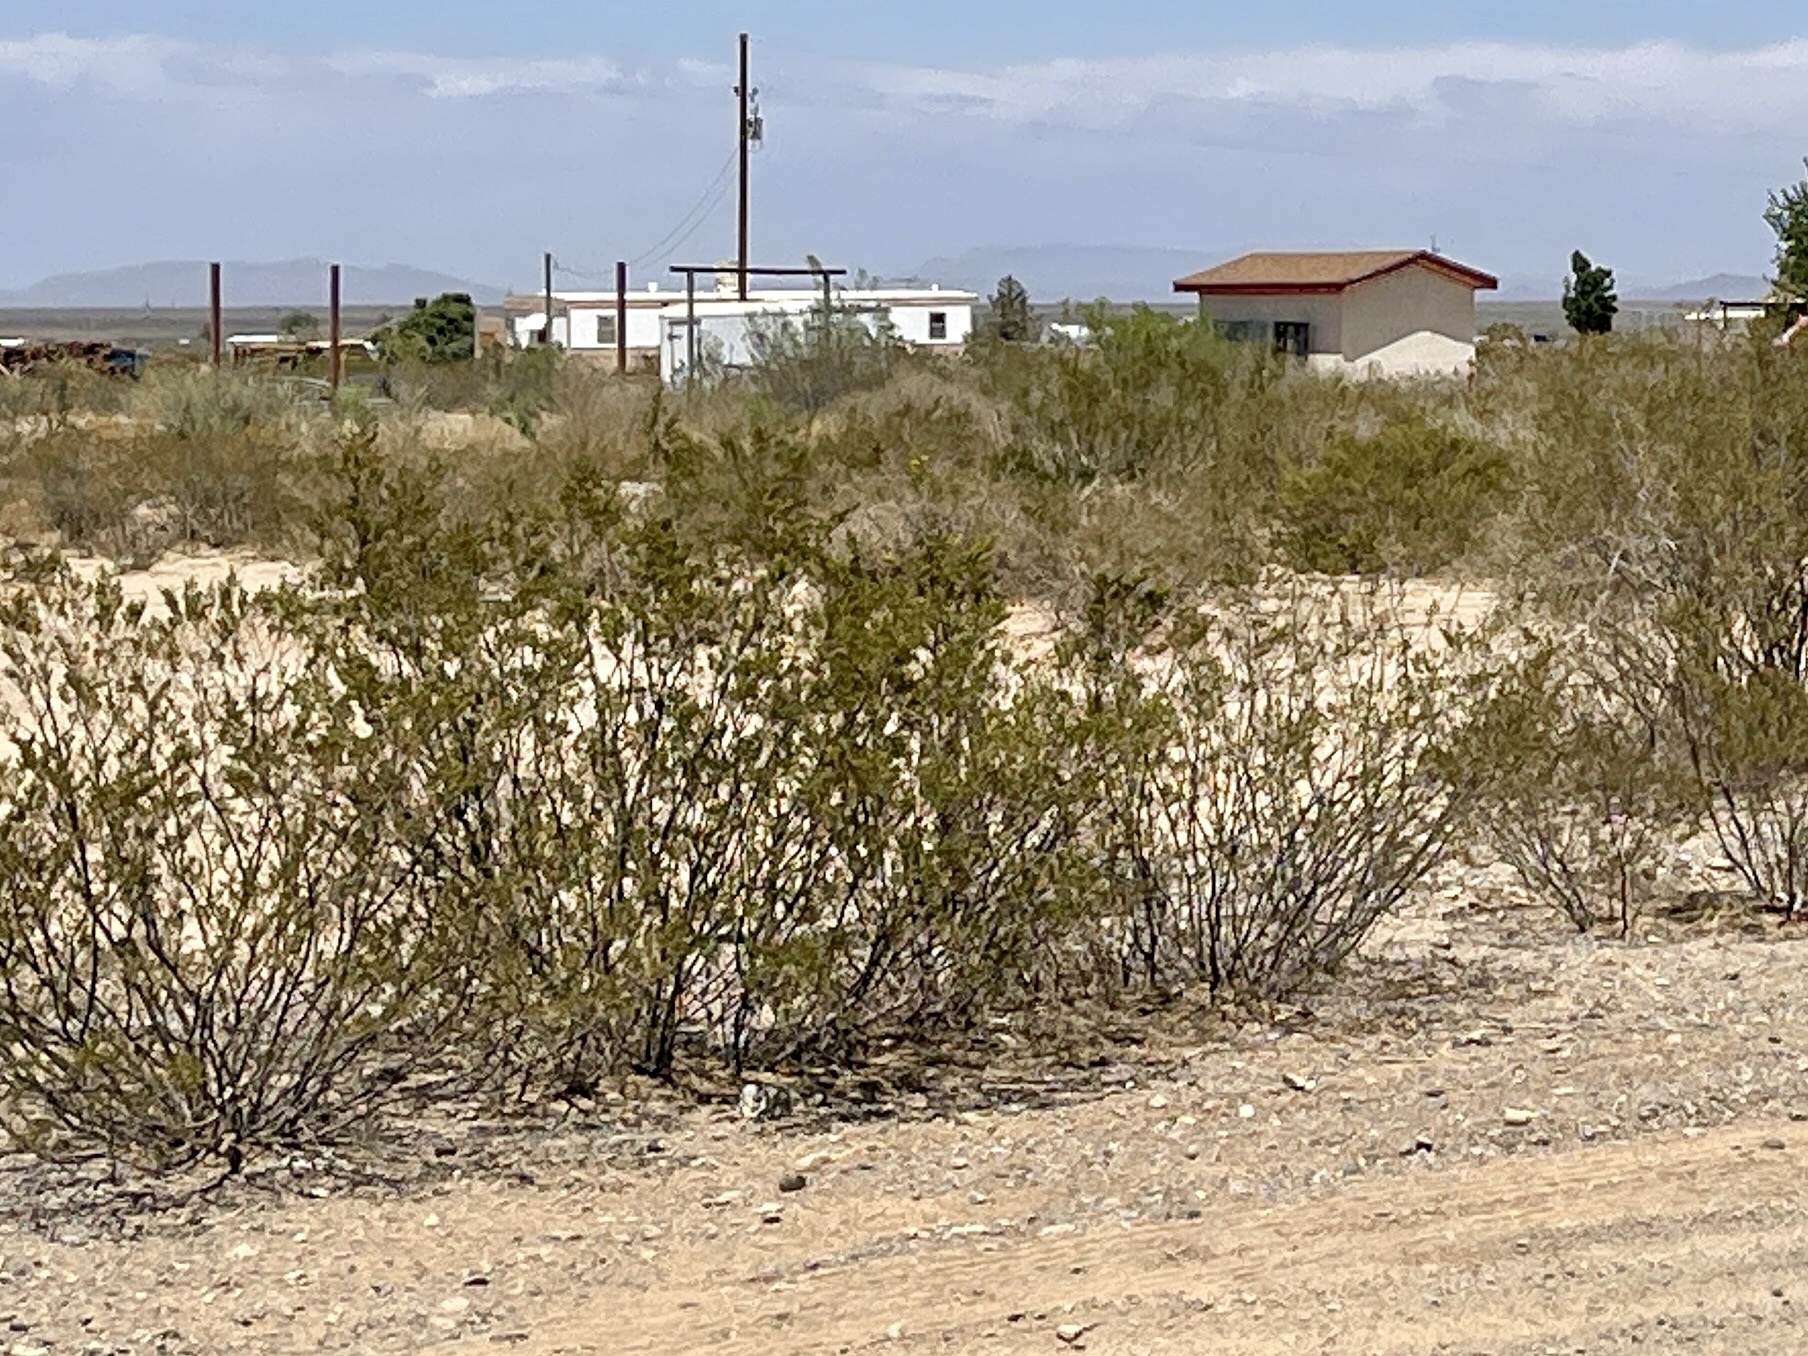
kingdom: Plantae
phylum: Tracheophyta
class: Magnoliopsida
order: Zygophyllales
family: Zygophyllaceae
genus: Larrea
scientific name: Larrea tridentata
